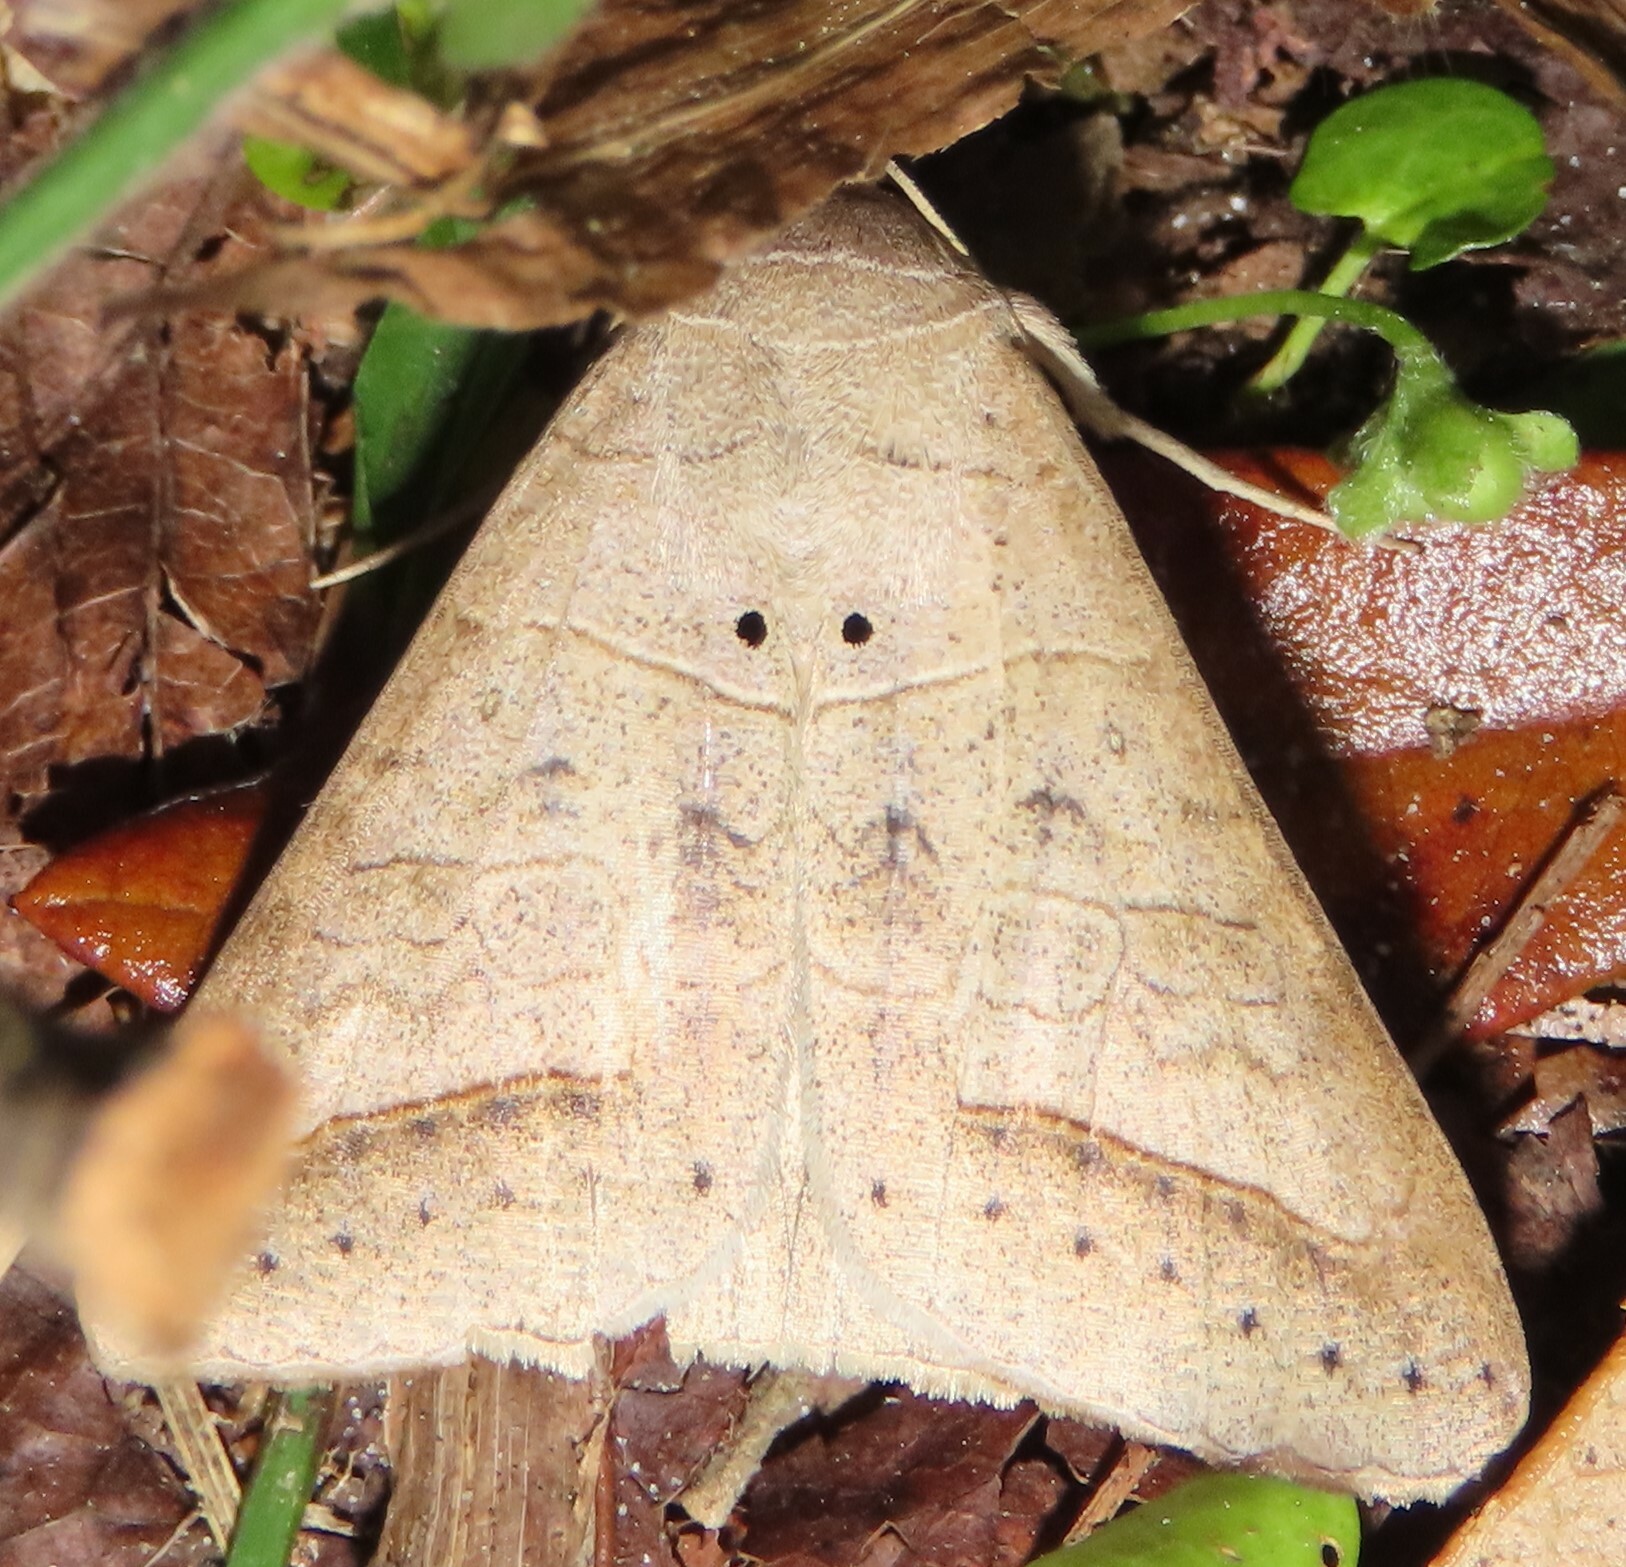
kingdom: Animalia
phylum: Arthropoda
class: Insecta
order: Lepidoptera
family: Erebidae
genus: Mocis
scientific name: Mocis marcida
